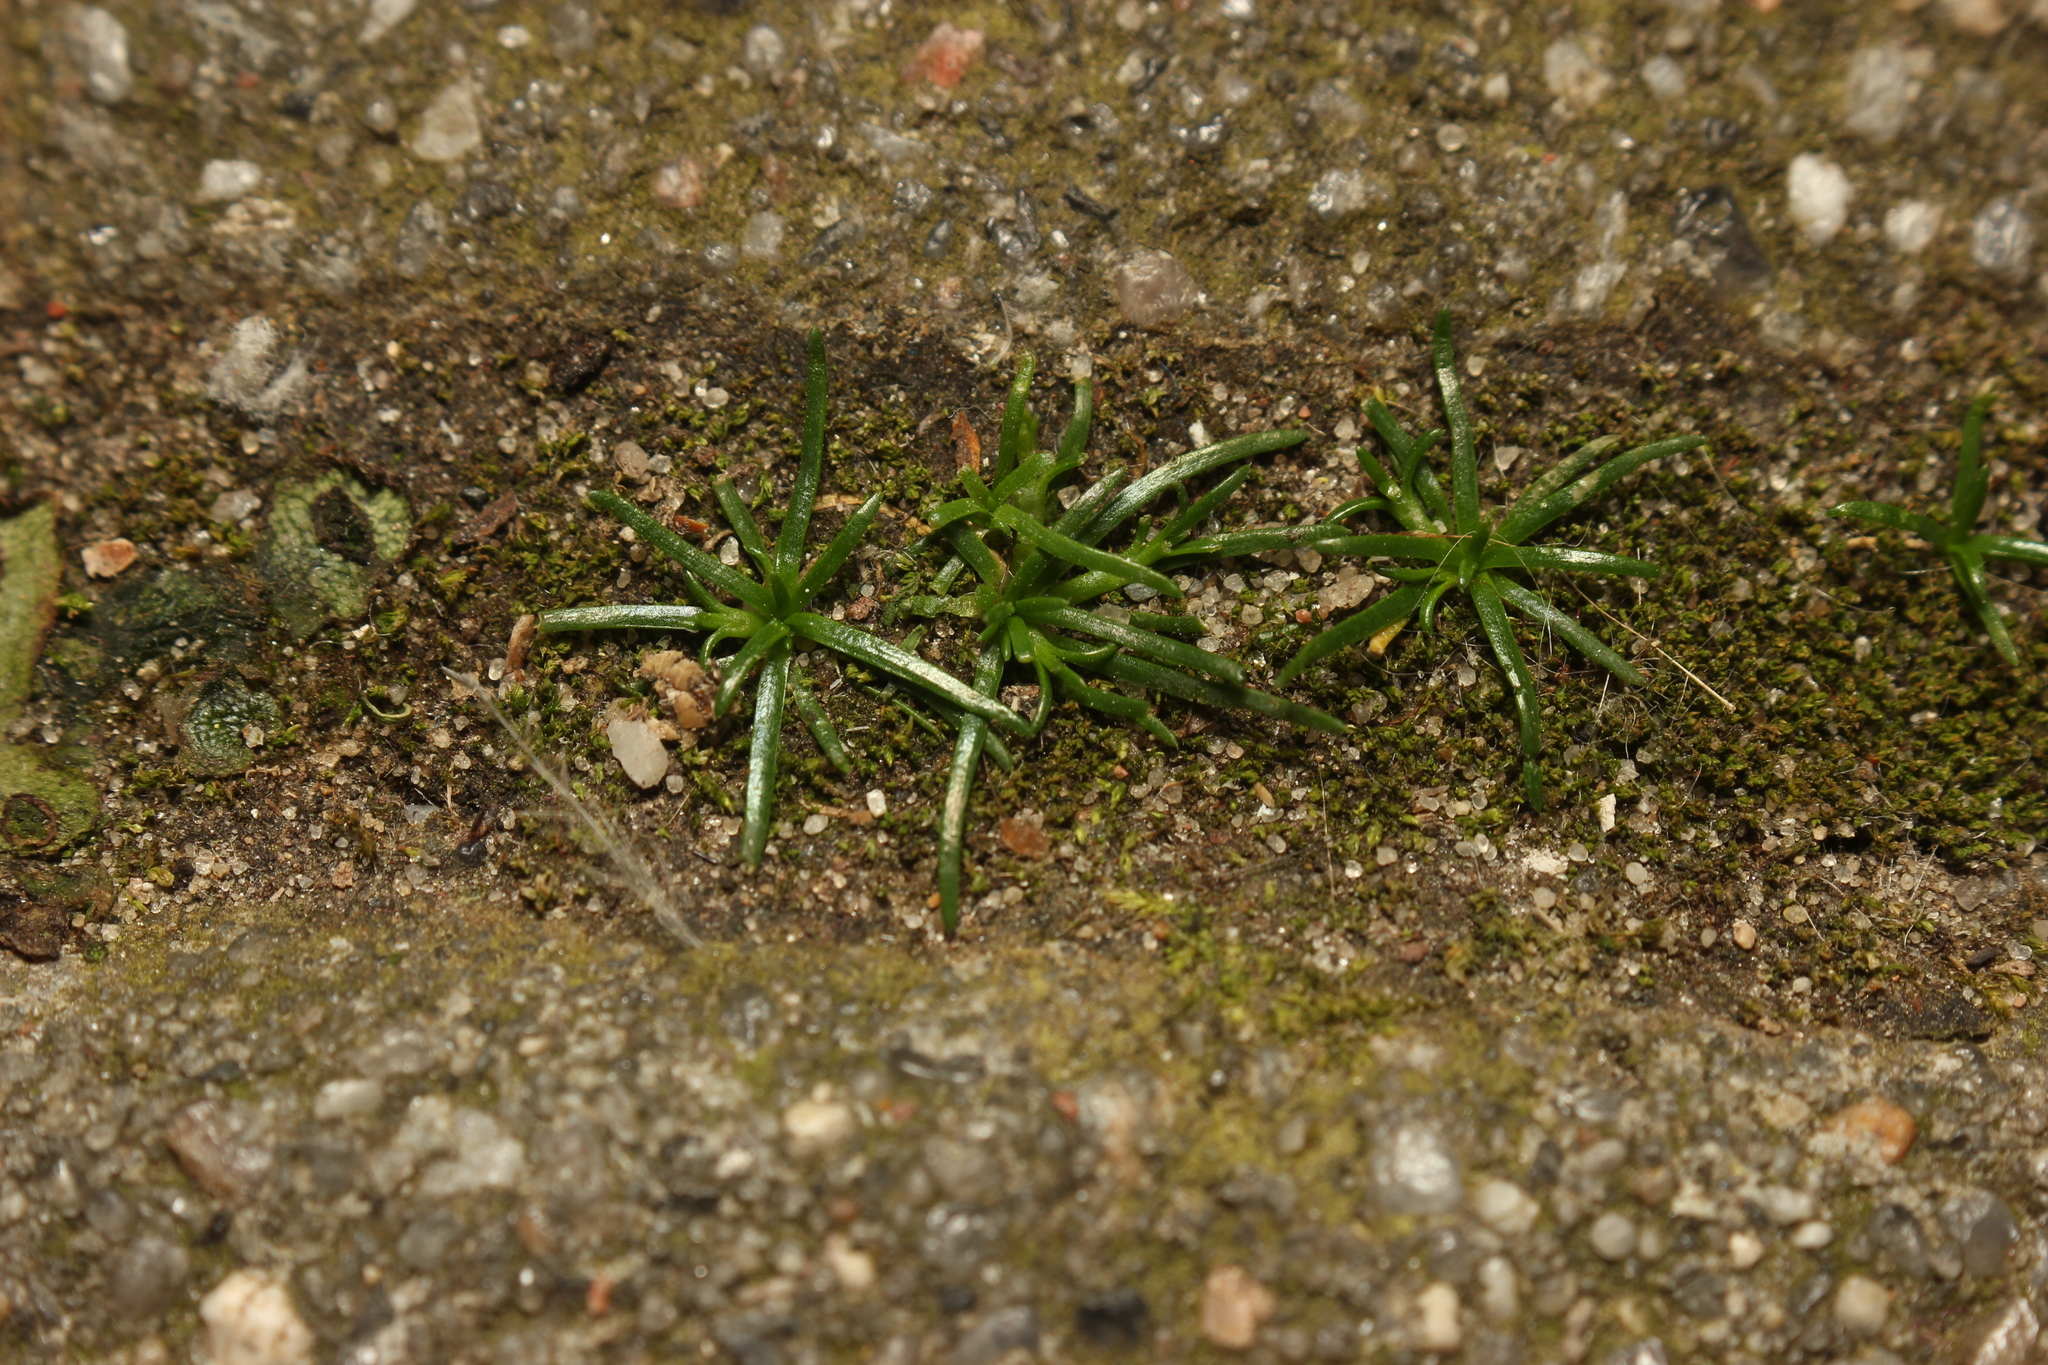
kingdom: Plantae
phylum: Tracheophyta
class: Magnoliopsida
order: Caryophyllales
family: Caryophyllaceae
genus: Sagina
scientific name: Sagina procumbens
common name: Procumbent pearlwort
